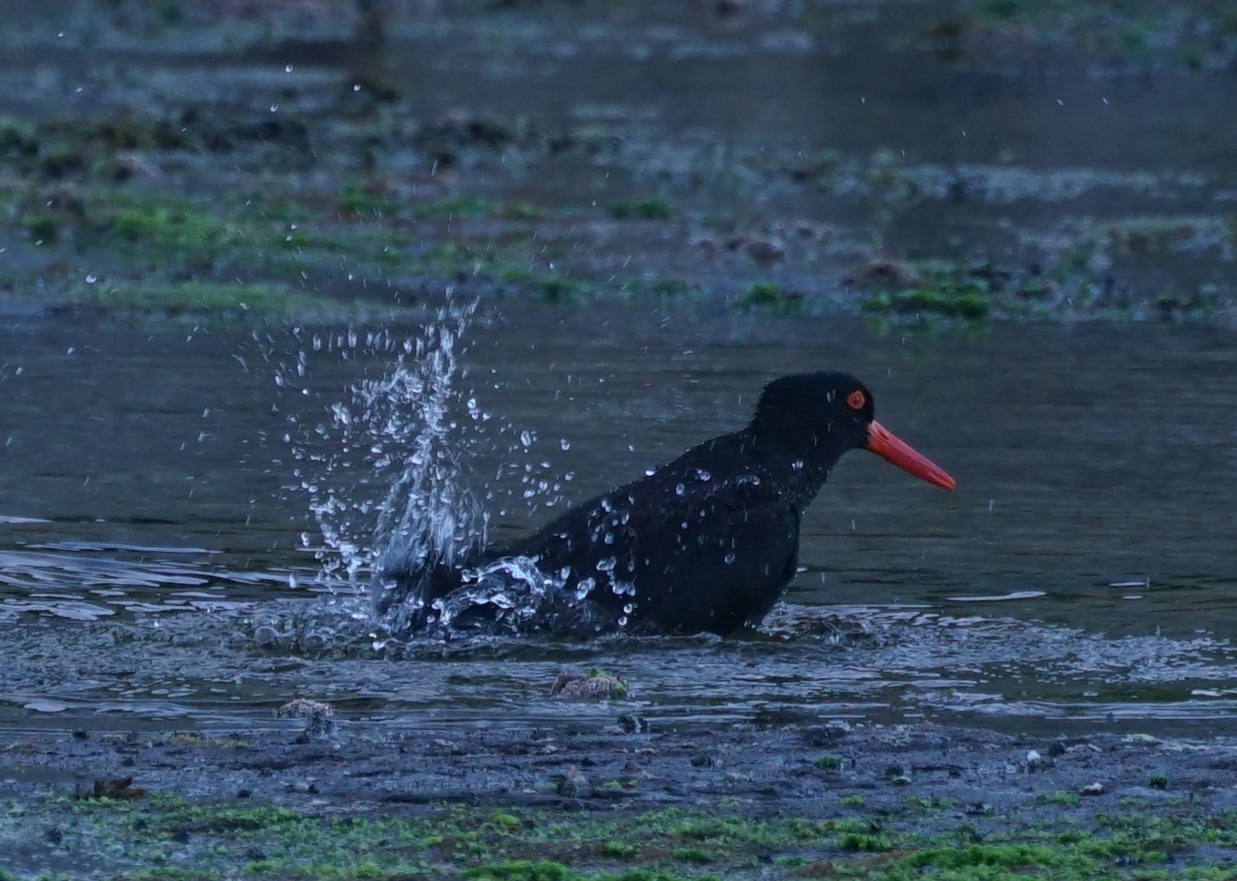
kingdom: Animalia
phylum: Chordata
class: Aves
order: Charadriiformes
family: Haematopodidae
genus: Haematopus
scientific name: Haematopus fuliginosus
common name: Sooty oystercatcher
